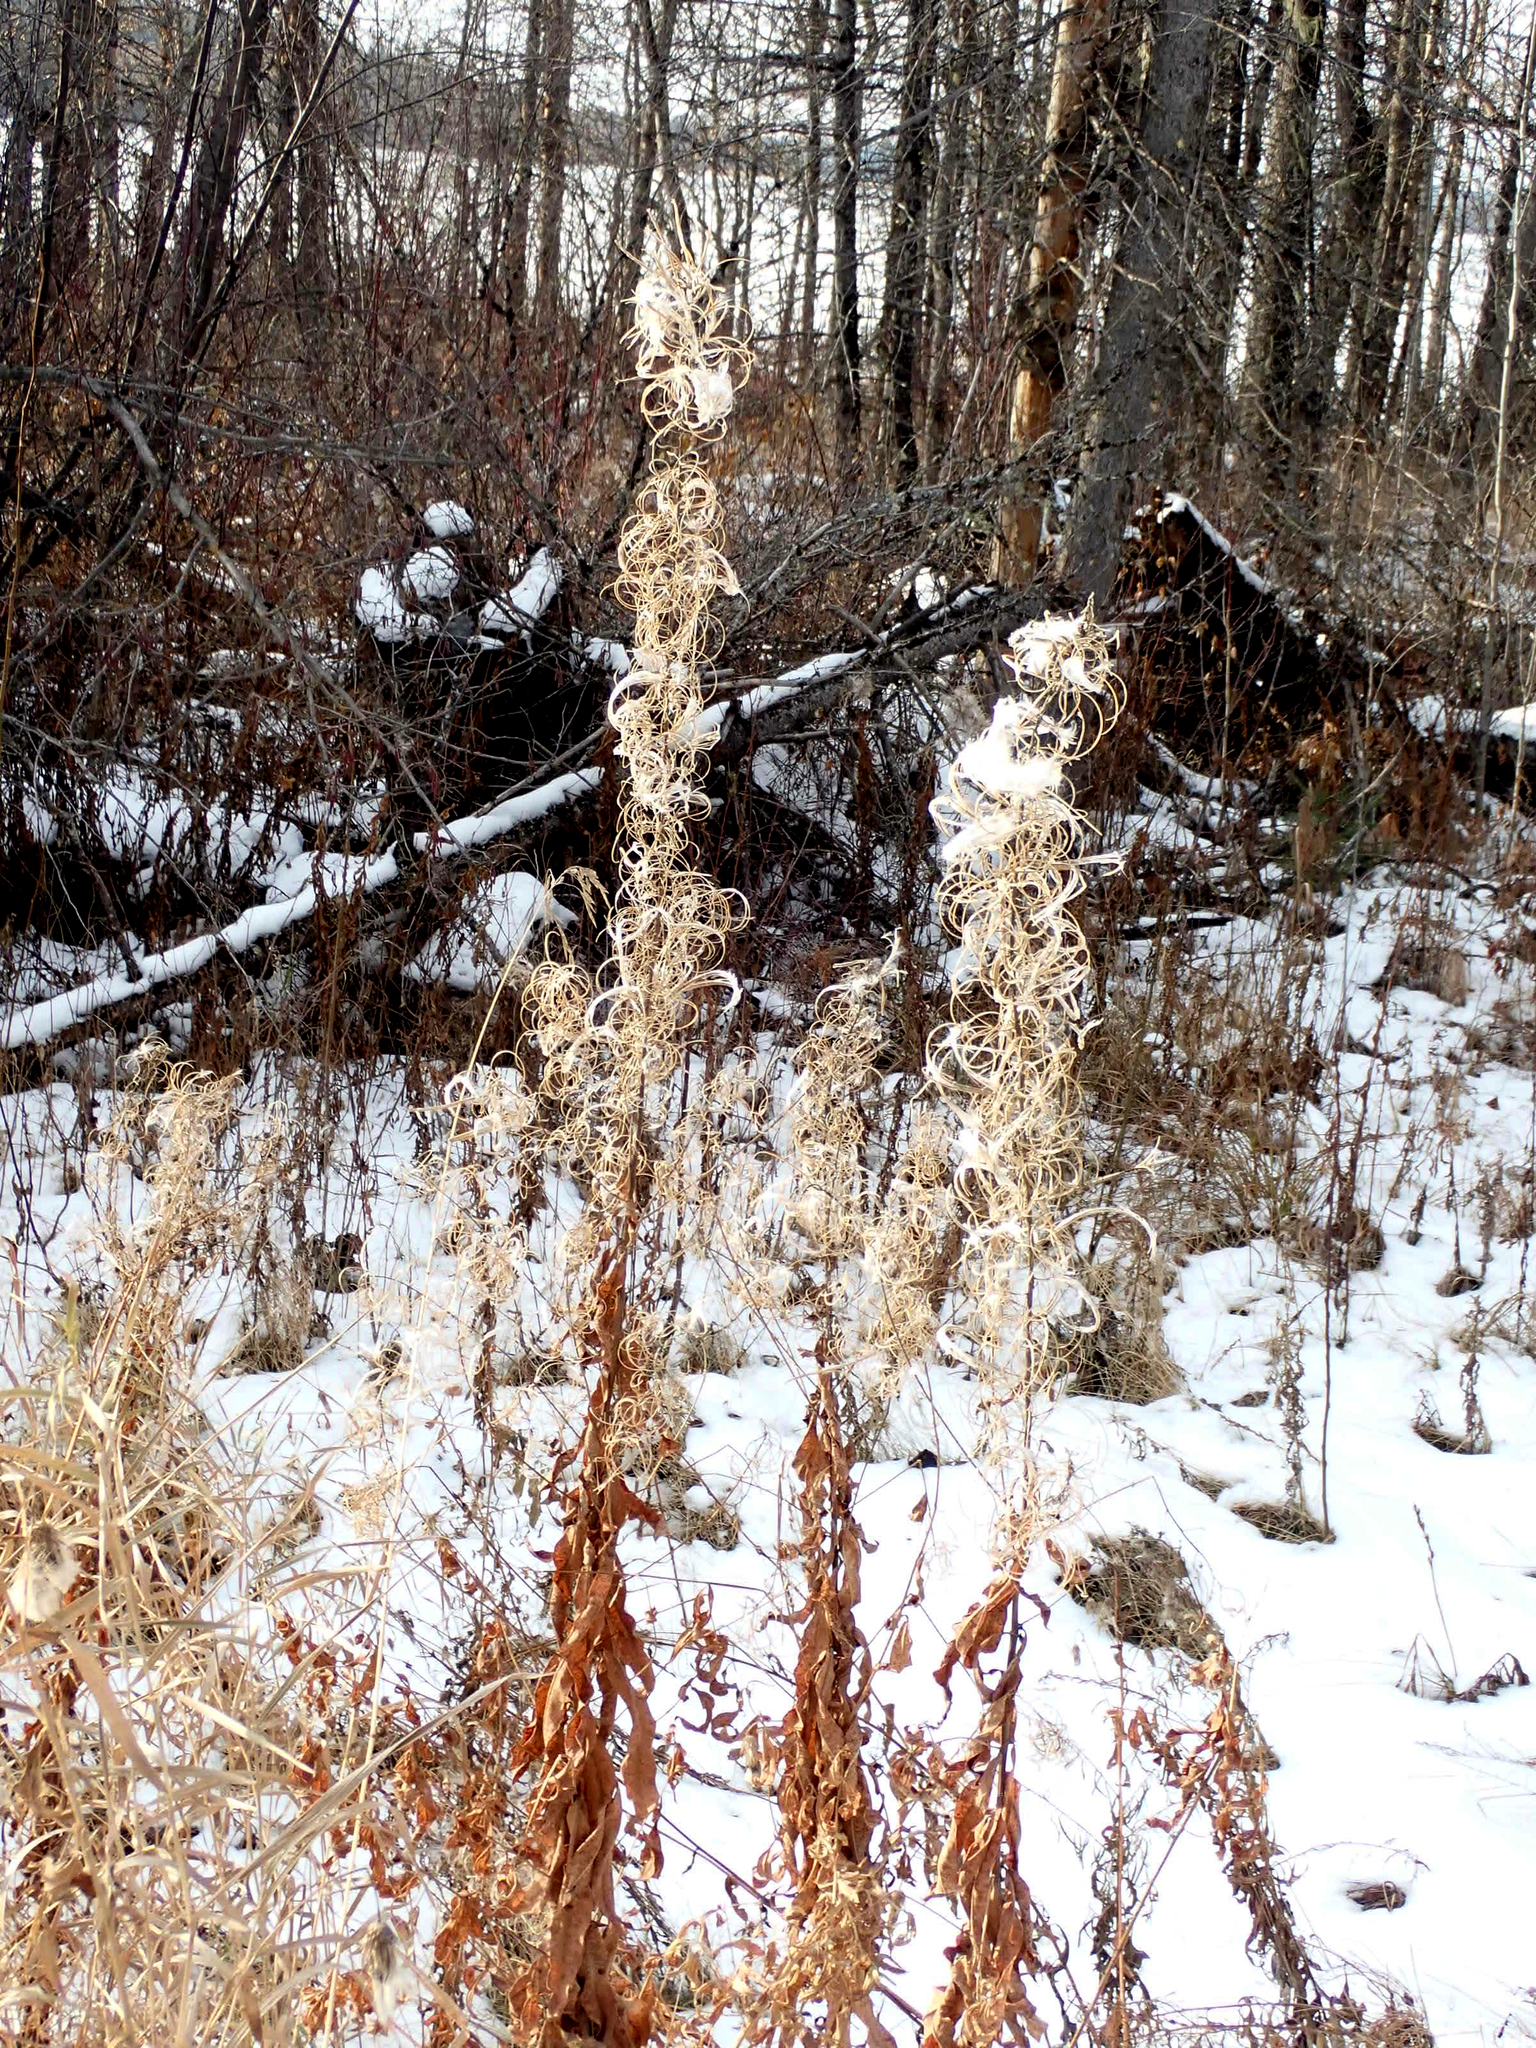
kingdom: Plantae
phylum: Tracheophyta
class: Magnoliopsida
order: Myrtales
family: Onagraceae
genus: Chamaenerion
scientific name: Chamaenerion angustifolium
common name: Fireweed
